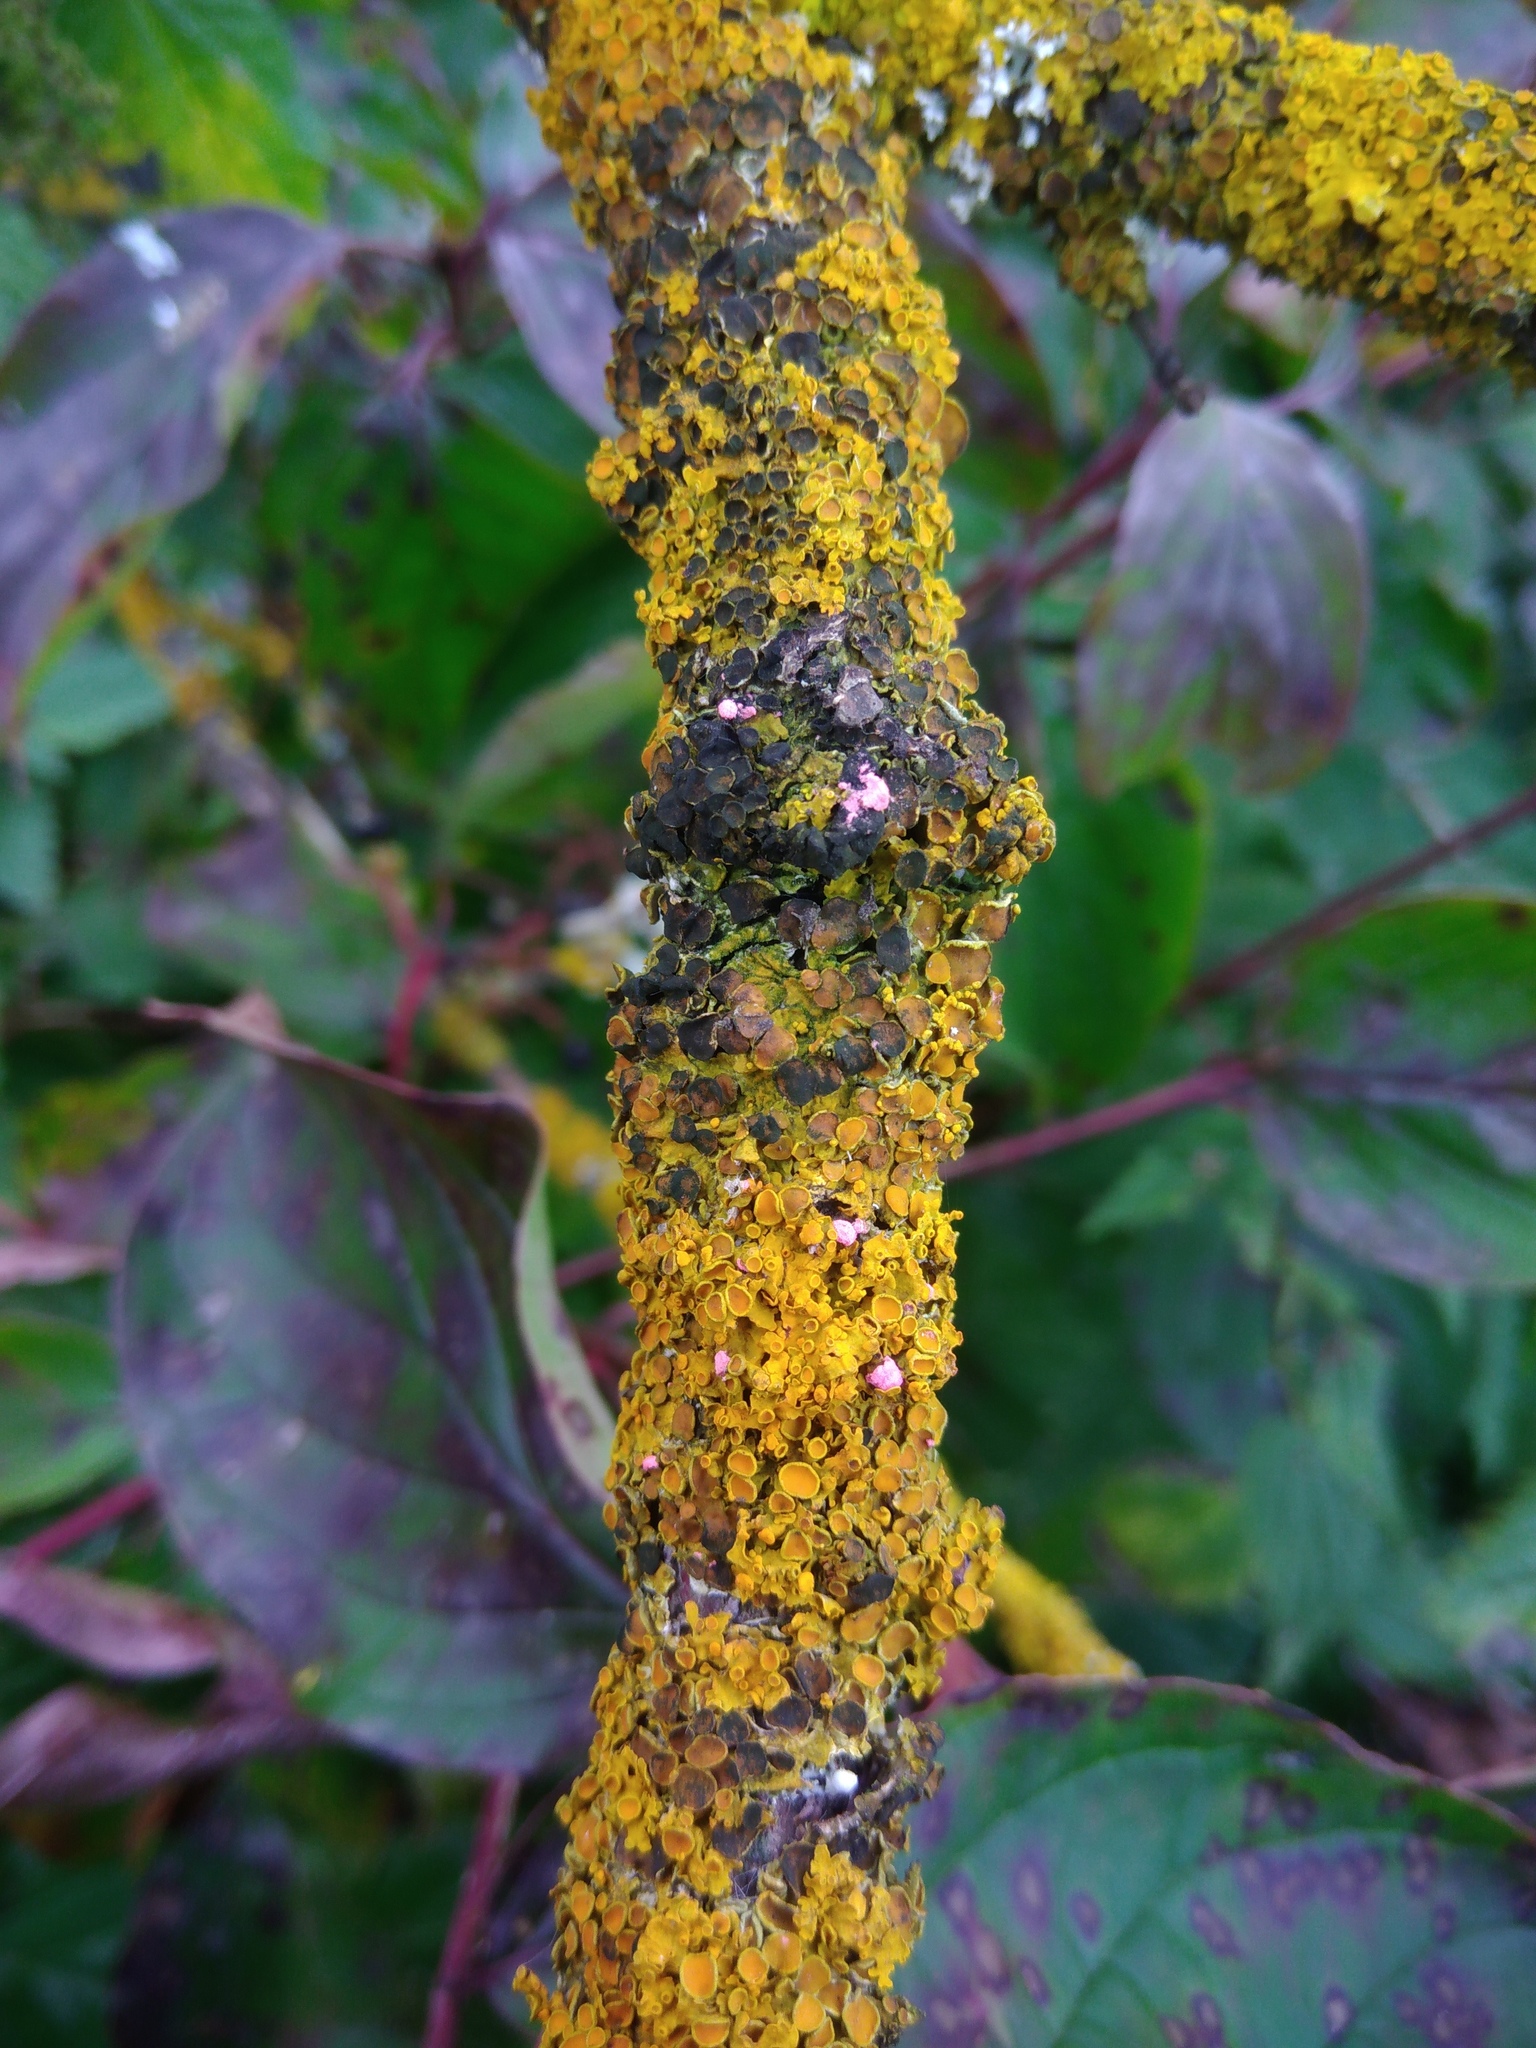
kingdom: Fungi
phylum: Ascomycota
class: Sordariomycetes
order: Hypocreales
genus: Illosporiopsis
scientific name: Illosporiopsis christiansenii
